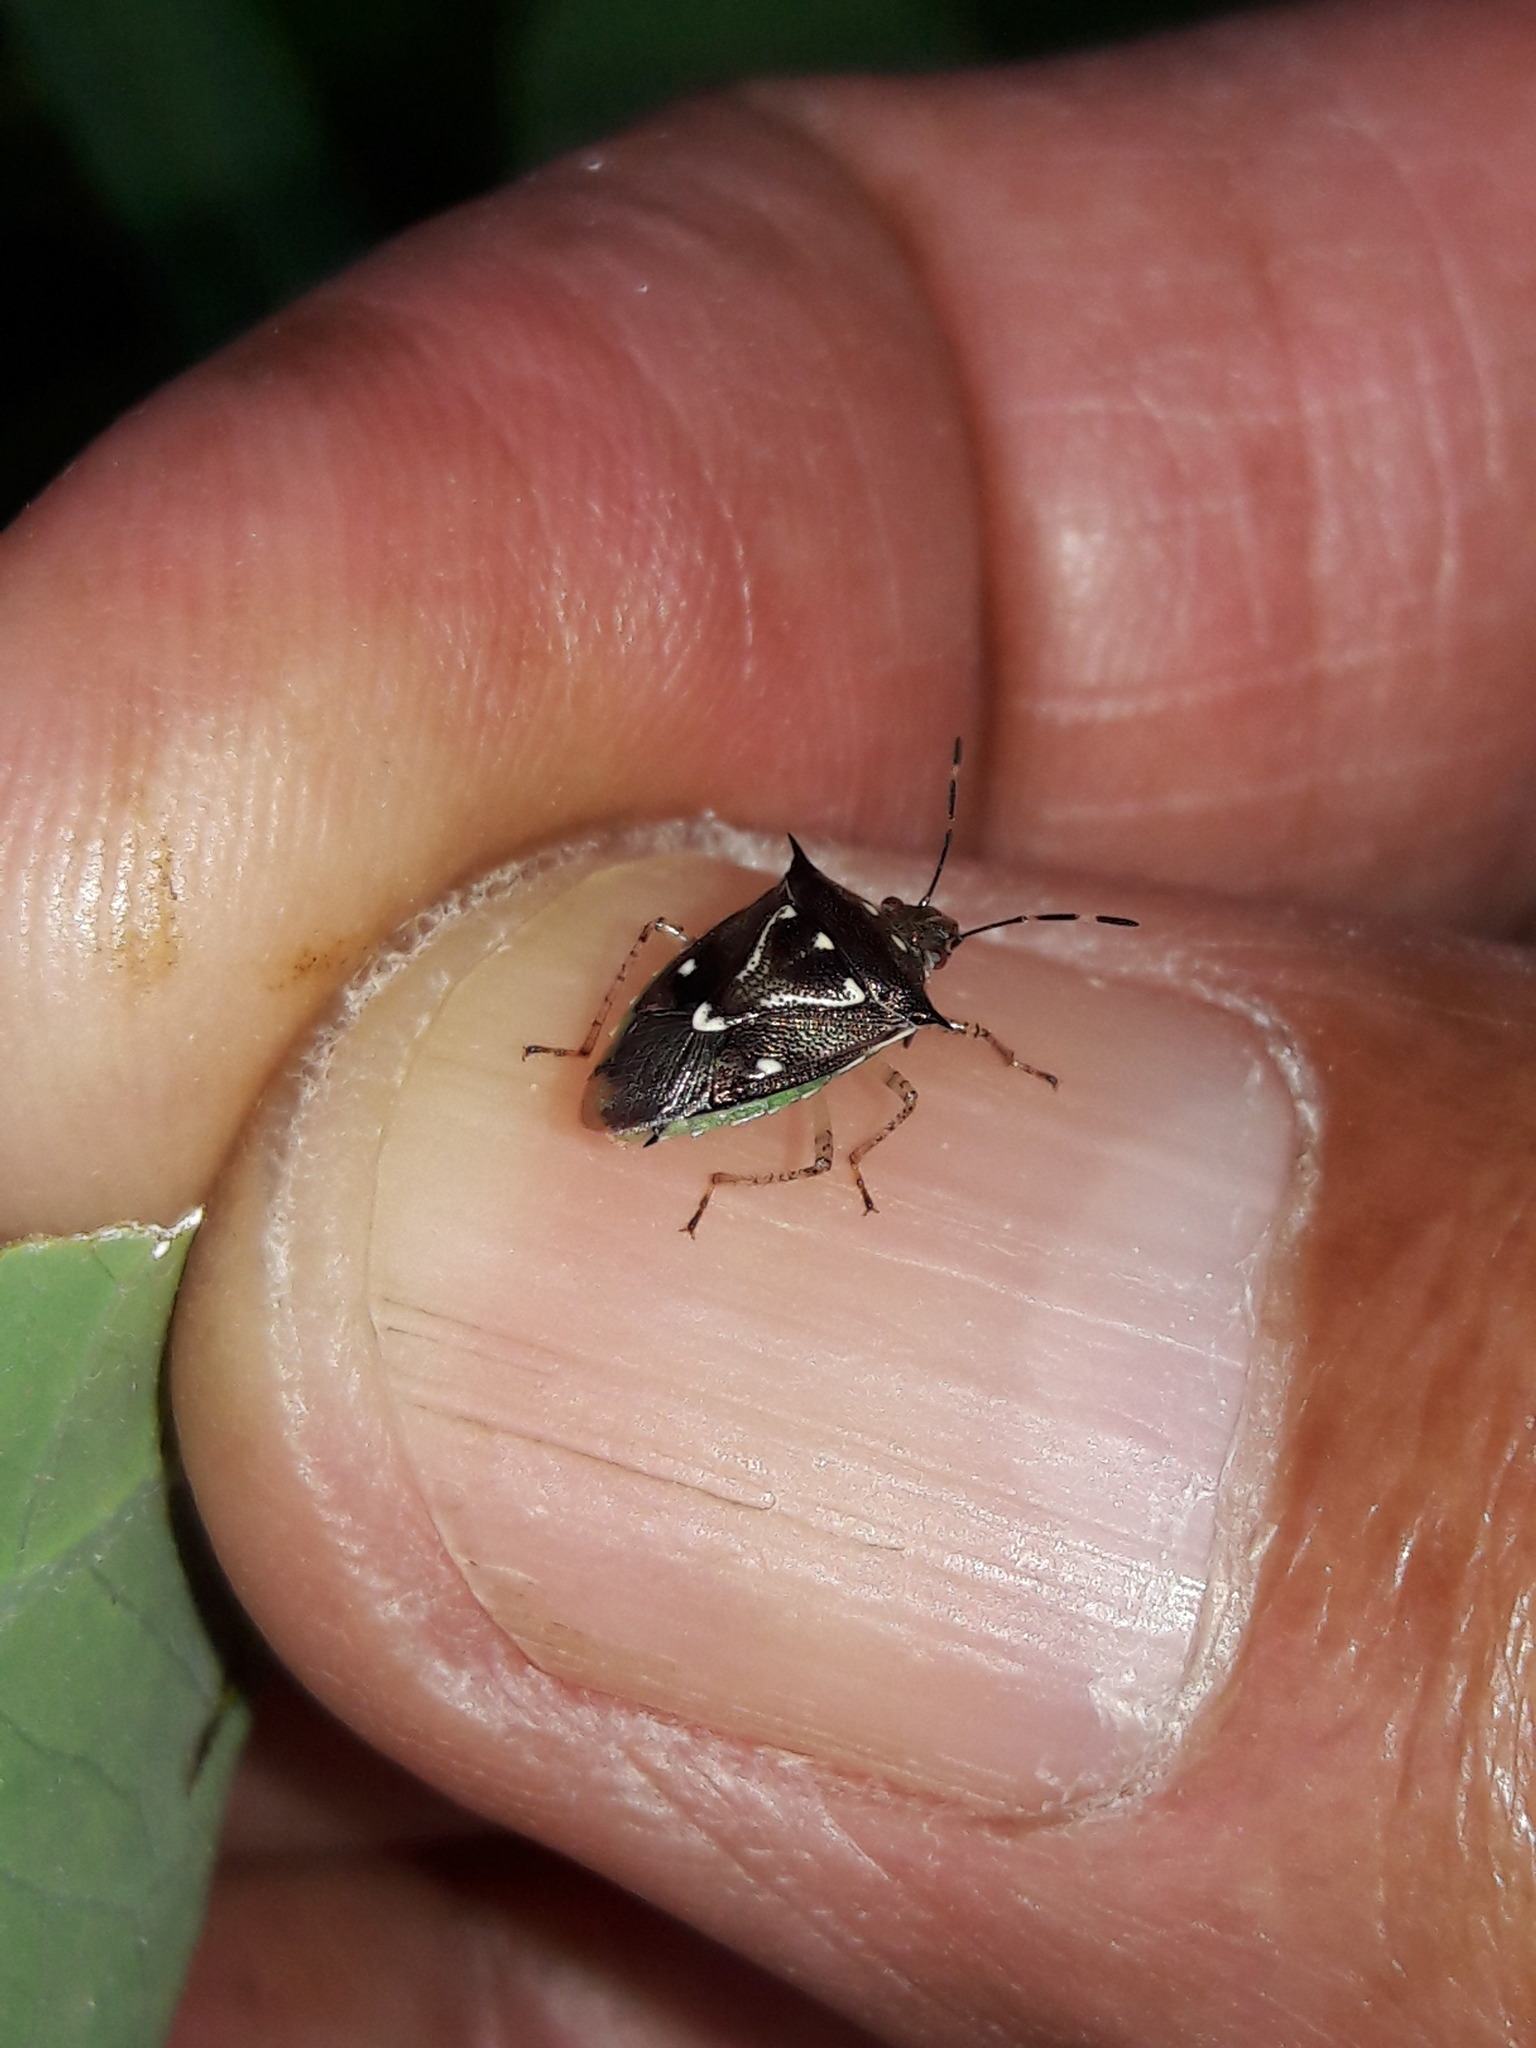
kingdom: Animalia
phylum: Arthropoda
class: Insecta
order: Hemiptera
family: Pentatomidae
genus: Mormidea
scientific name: Mormidea v-luteum
